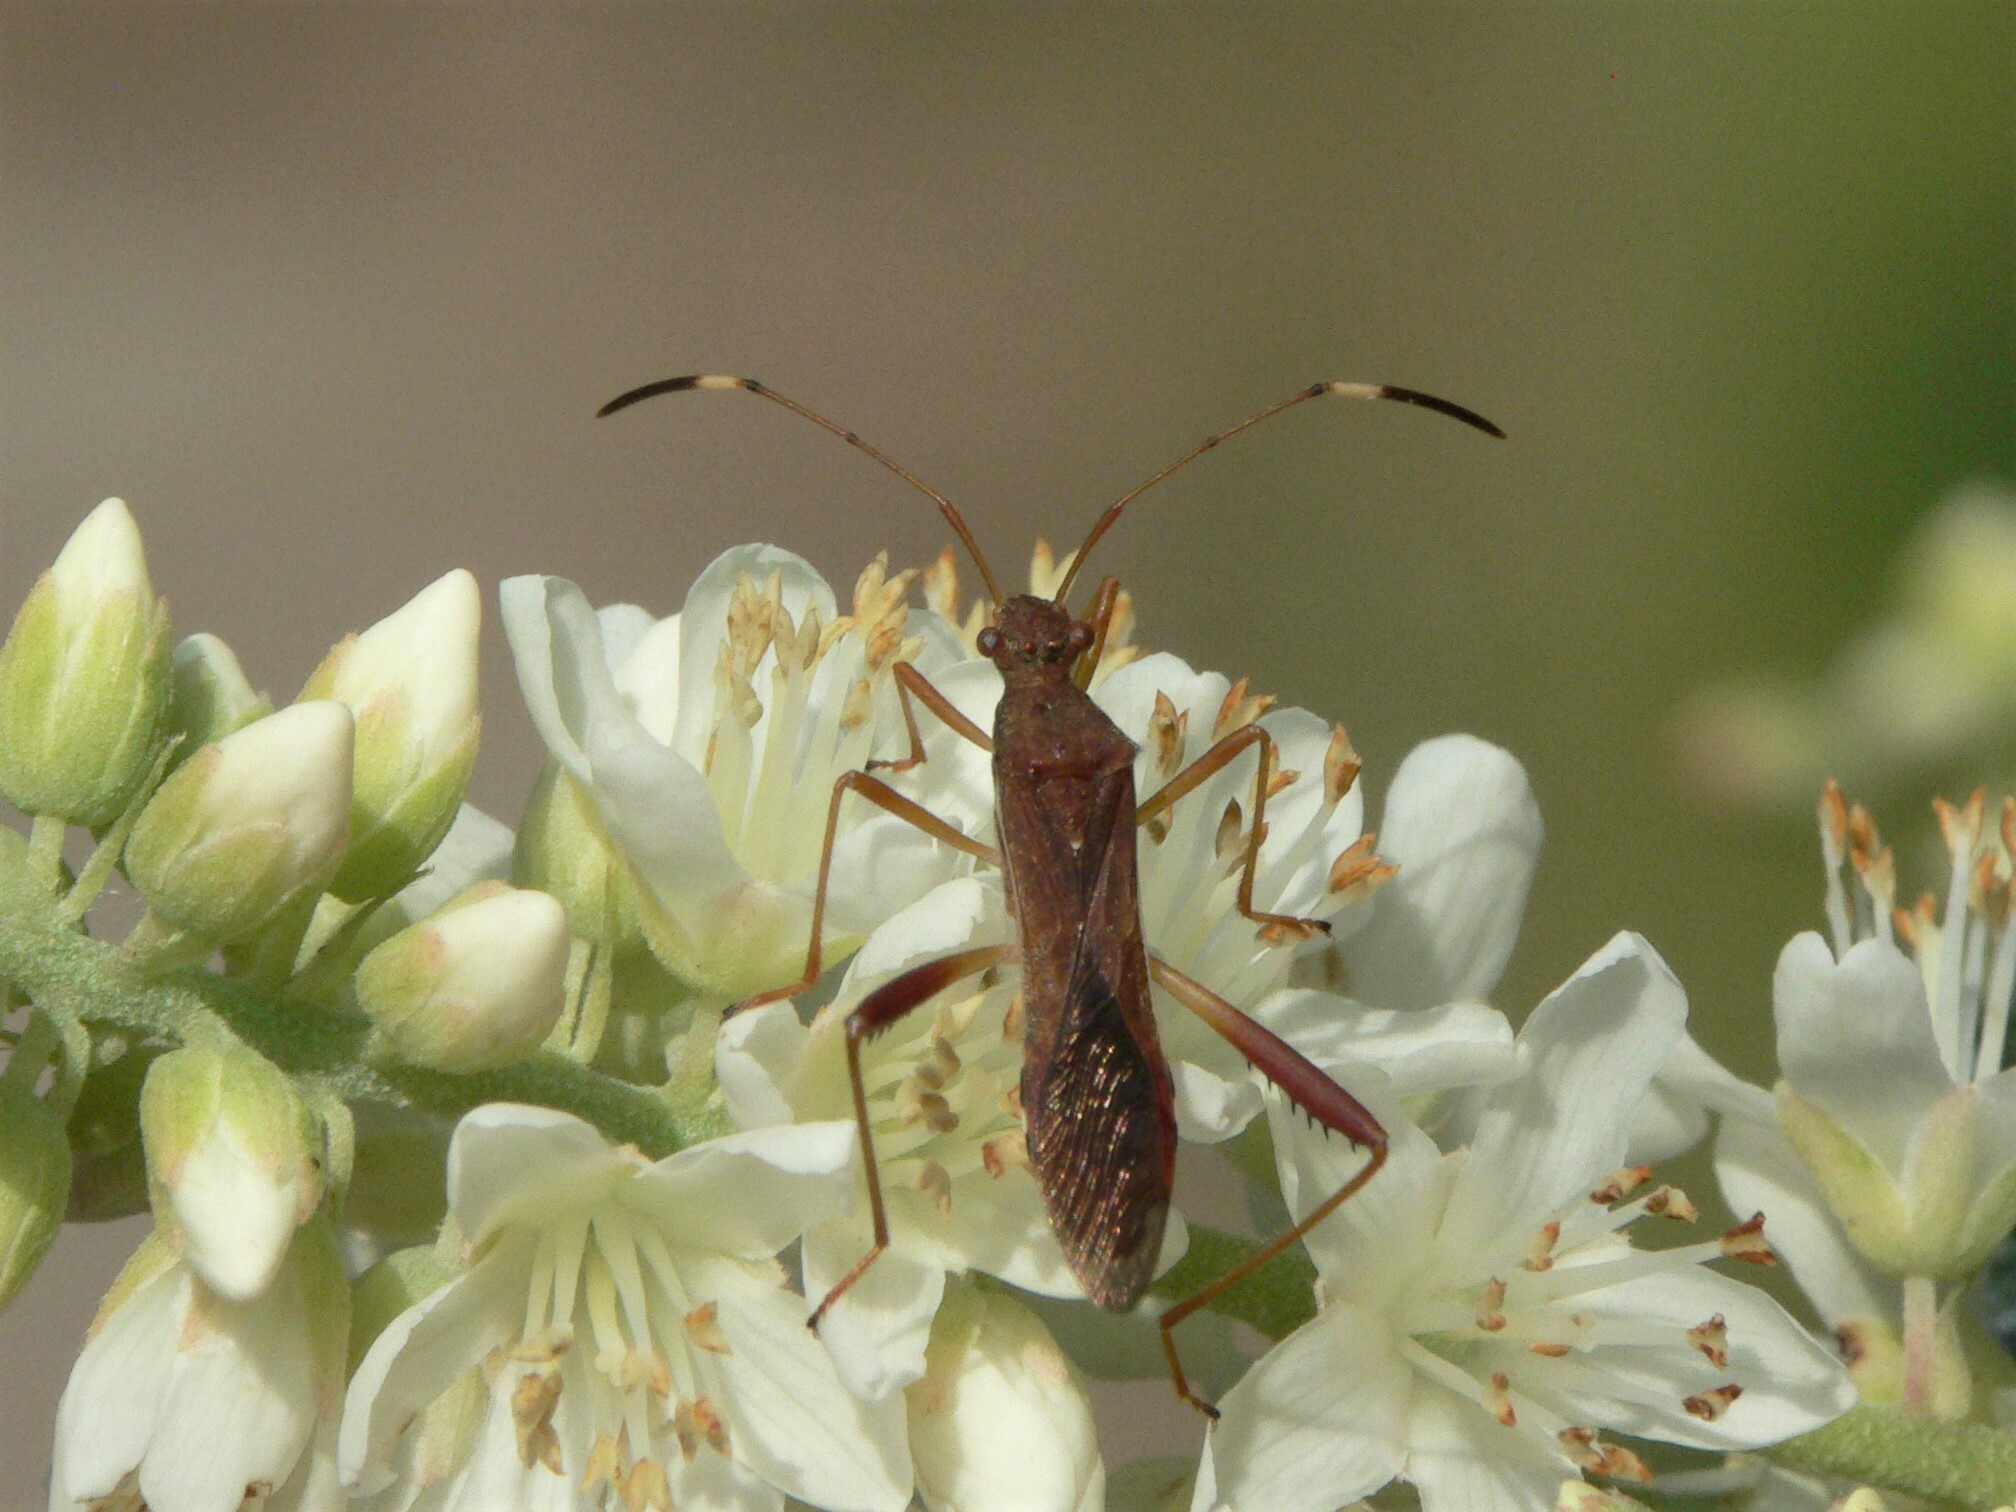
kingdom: Animalia
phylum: Arthropoda
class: Insecta
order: Hemiptera
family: Alydidae
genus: Megalotomus
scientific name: Megalotomus quinquespinosus
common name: Lupine bug
